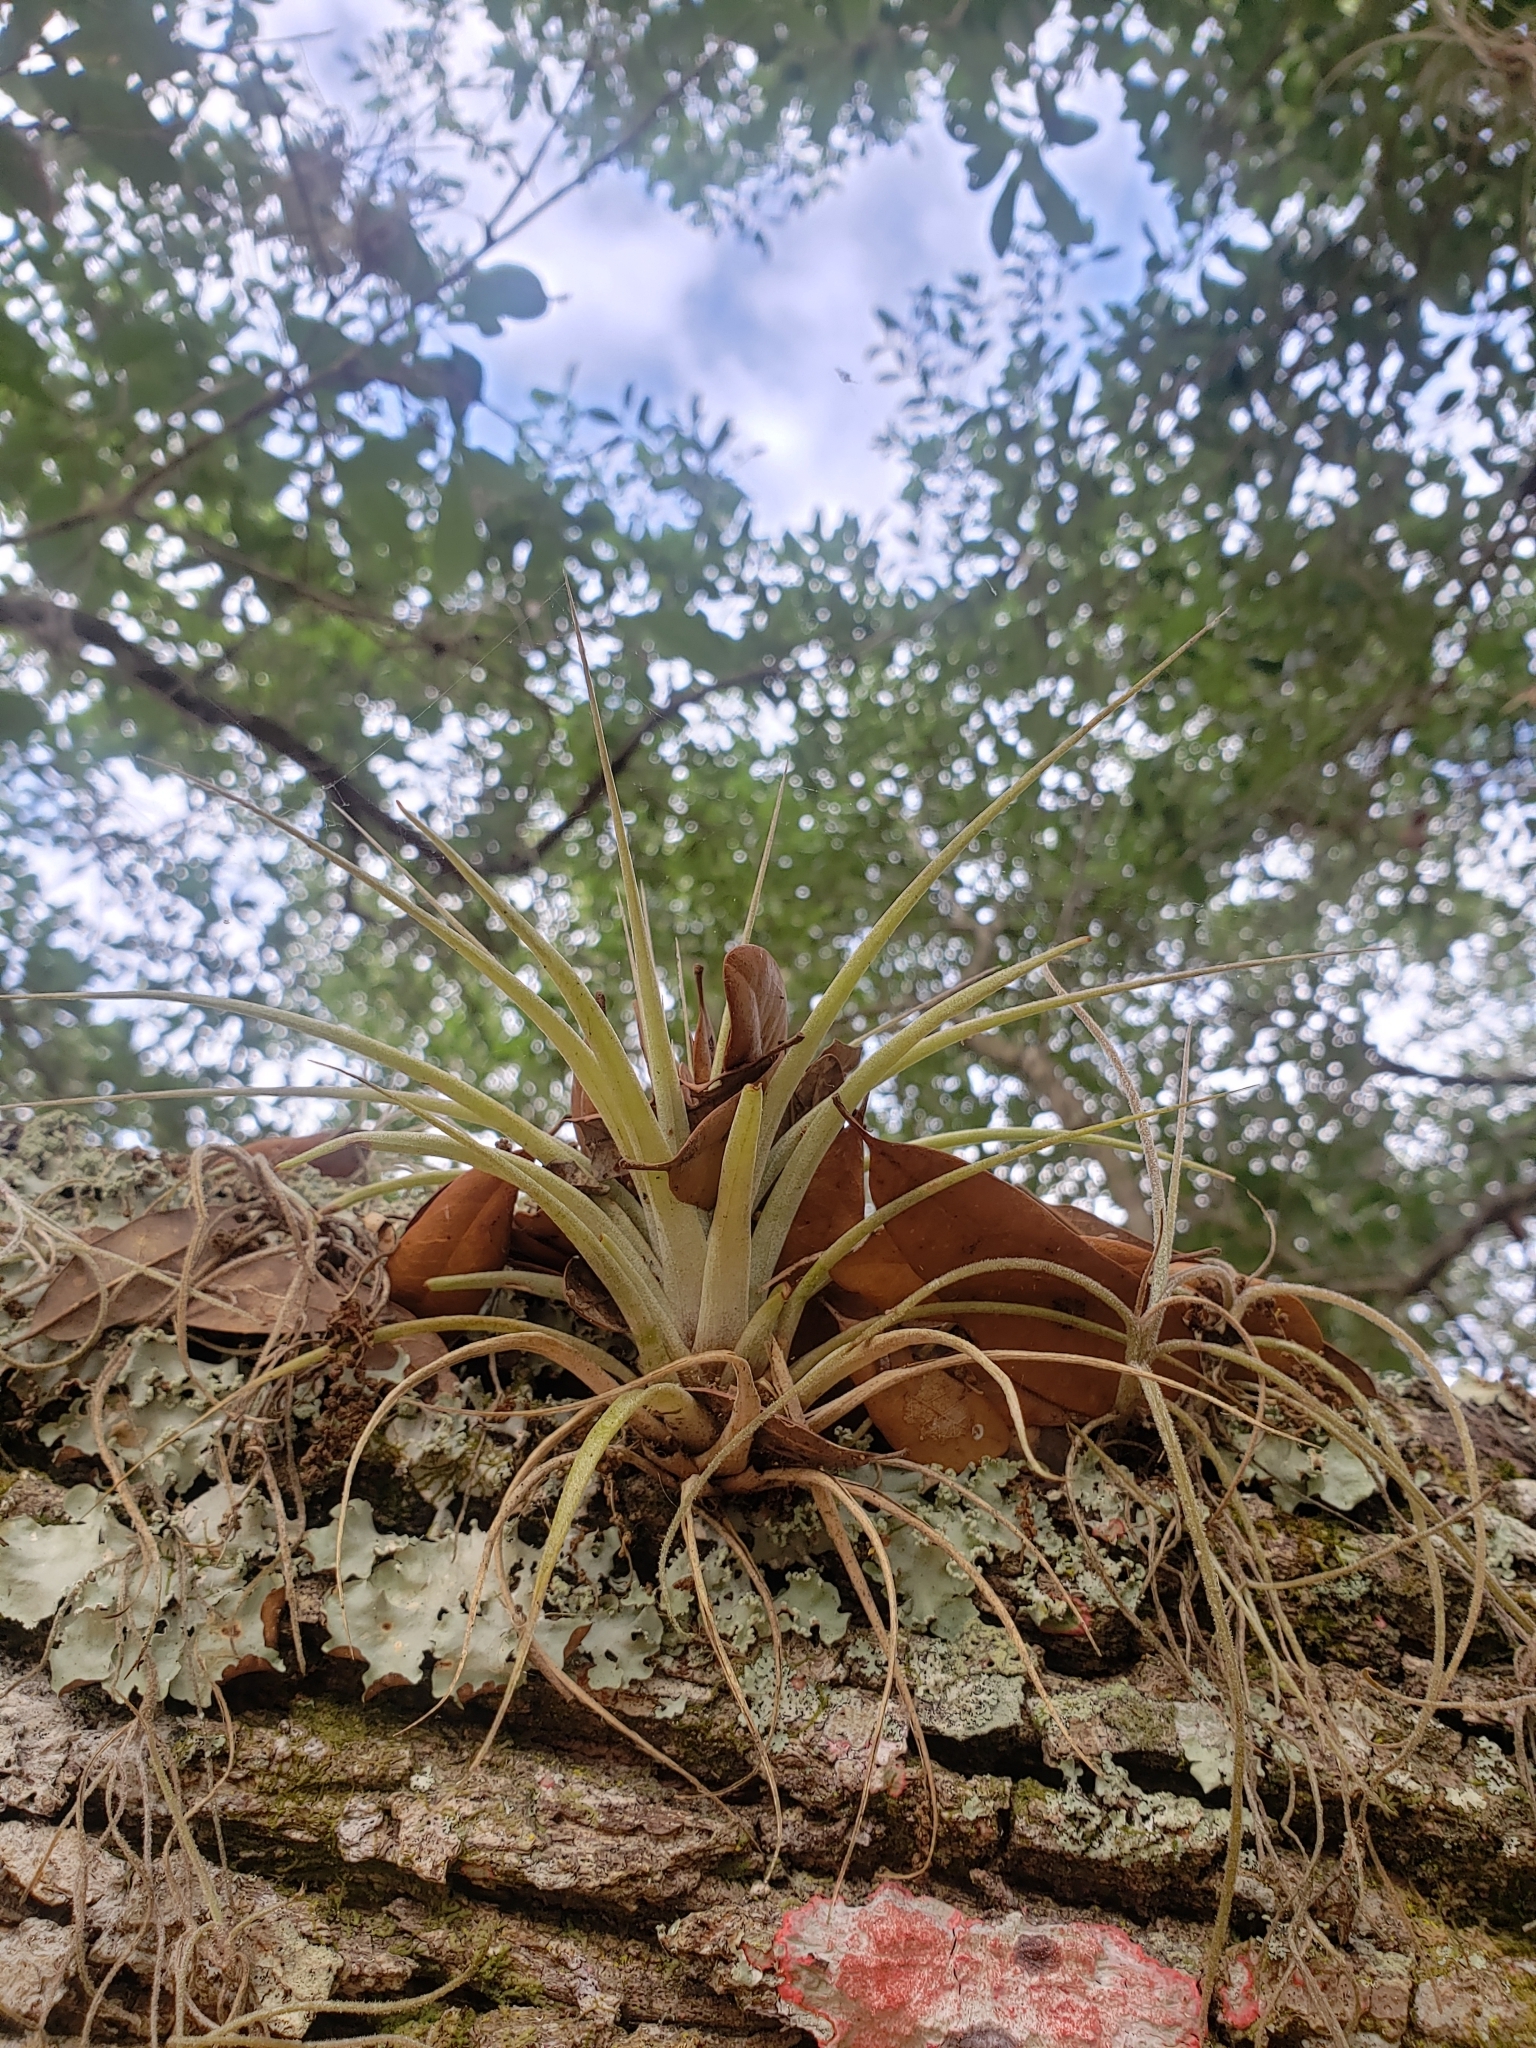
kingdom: Plantae
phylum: Tracheophyta
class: Liliopsida
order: Poales
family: Bromeliaceae
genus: Tillandsia
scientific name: Tillandsia utriculata
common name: Wild pine
